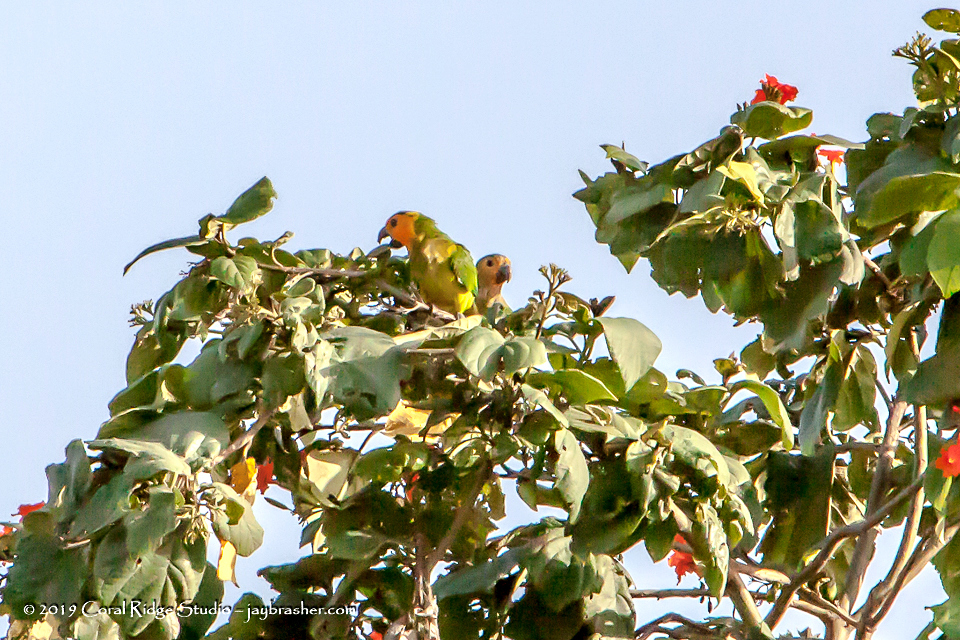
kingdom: Animalia
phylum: Chordata
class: Aves
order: Psittaciformes
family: Psittacidae
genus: Aratinga
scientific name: Aratinga pertinax
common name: Brown-throated parakeet
